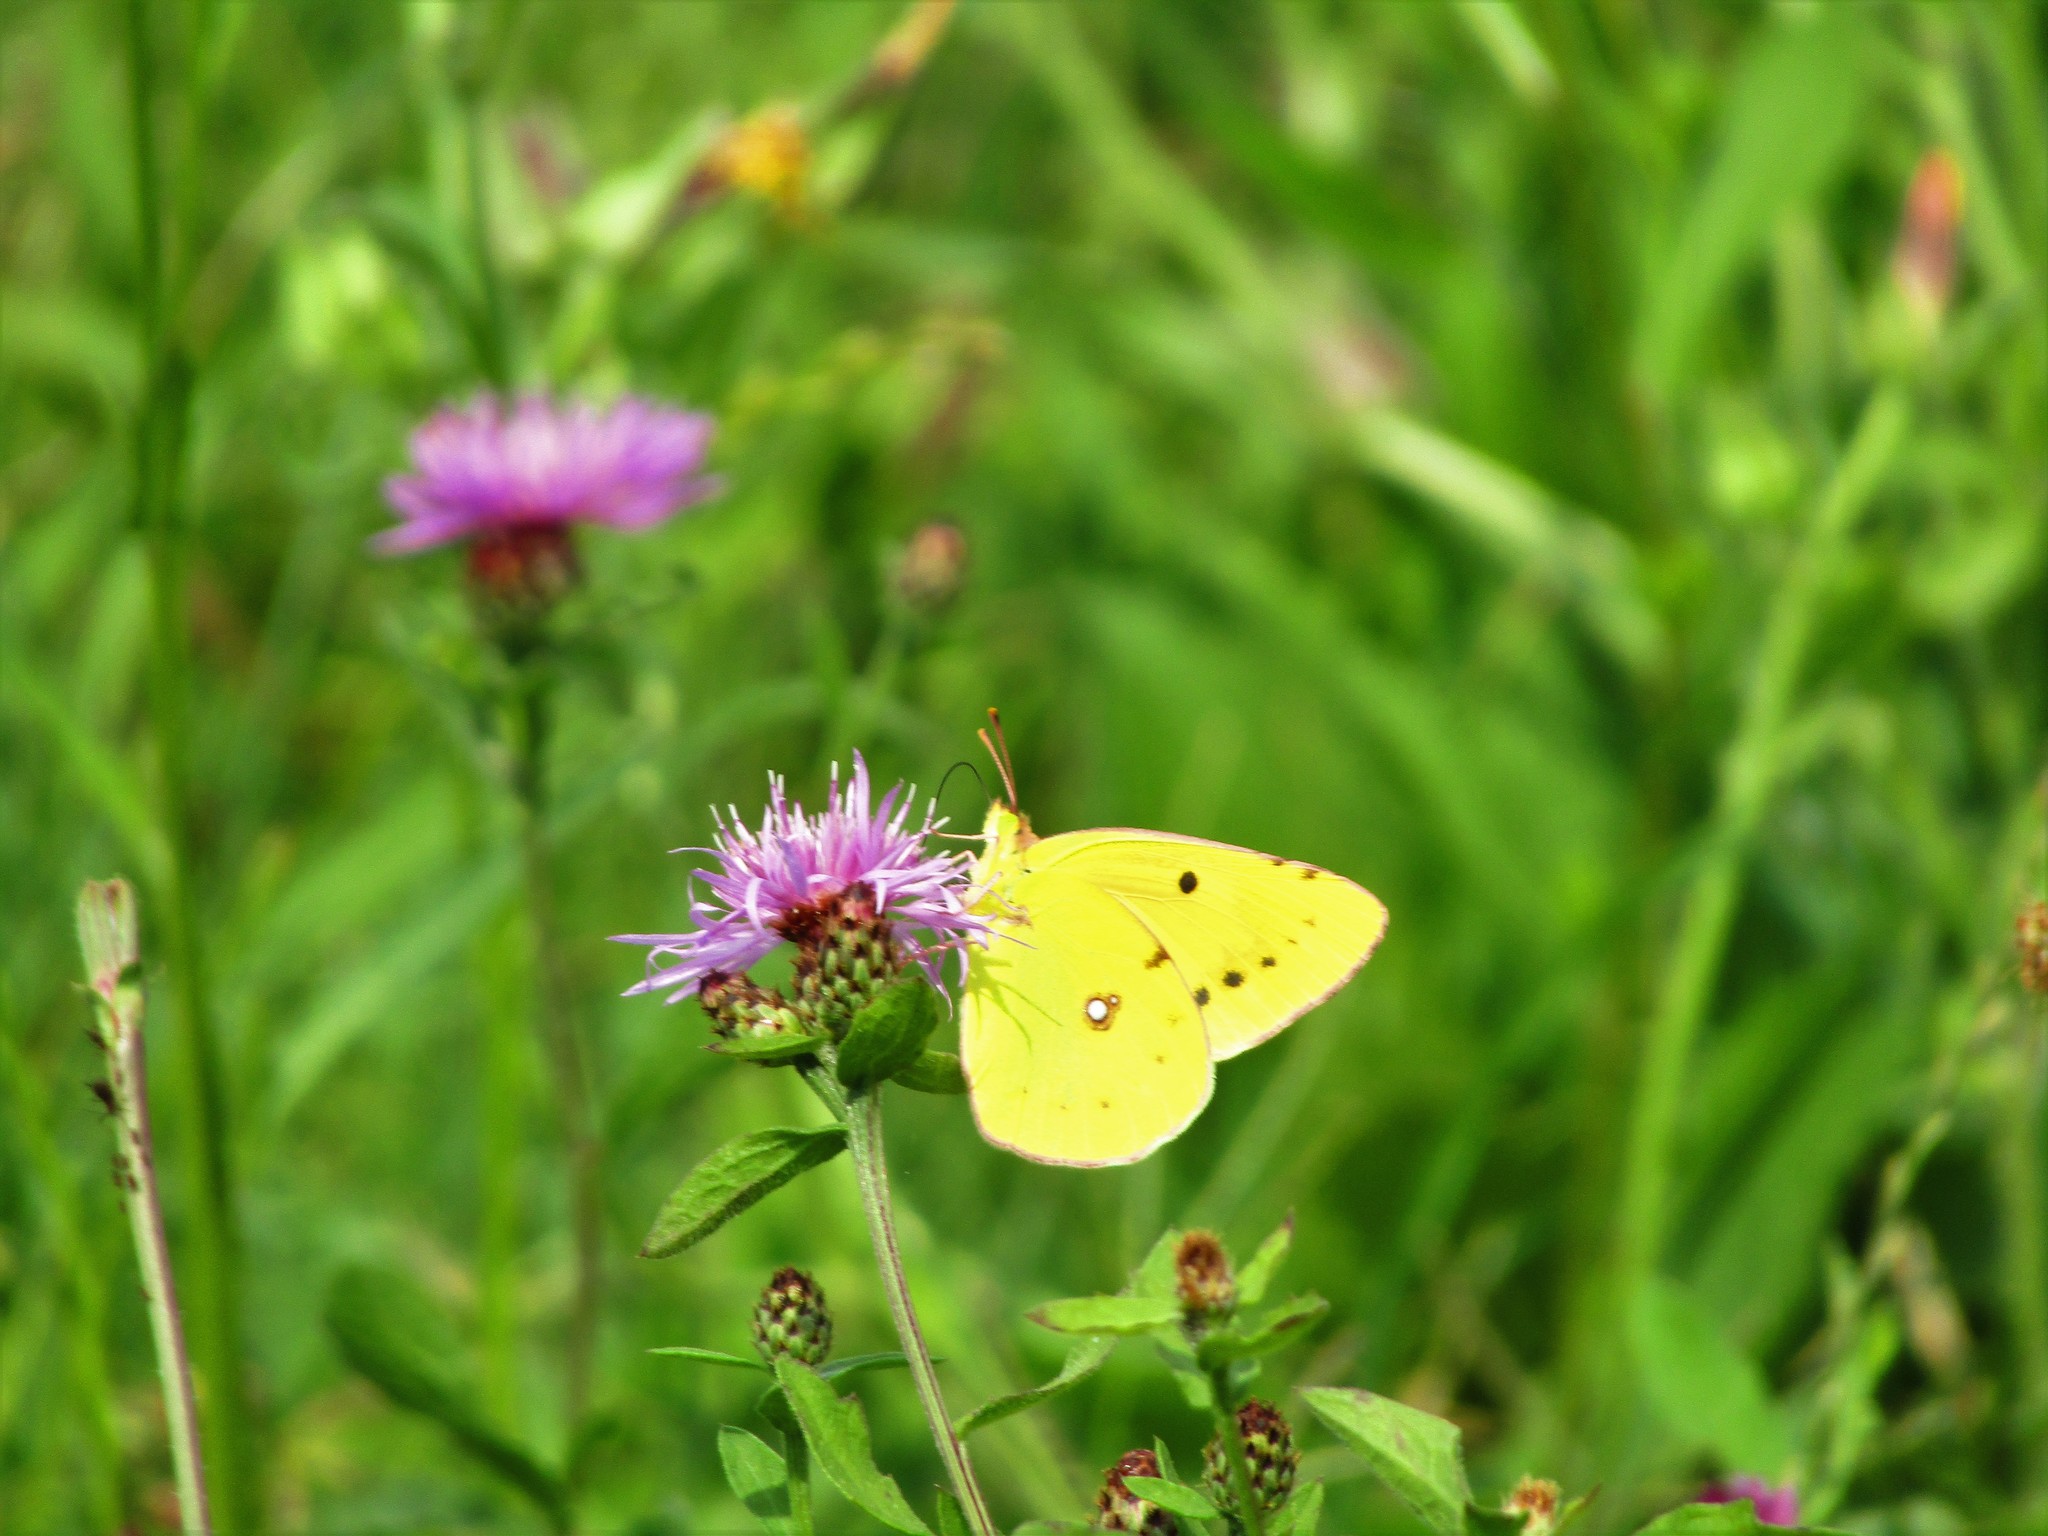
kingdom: Animalia
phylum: Arthropoda
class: Insecta
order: Lepidoptera
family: Pieridae
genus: Colias
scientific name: Colias croceus
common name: Clouded yellow
